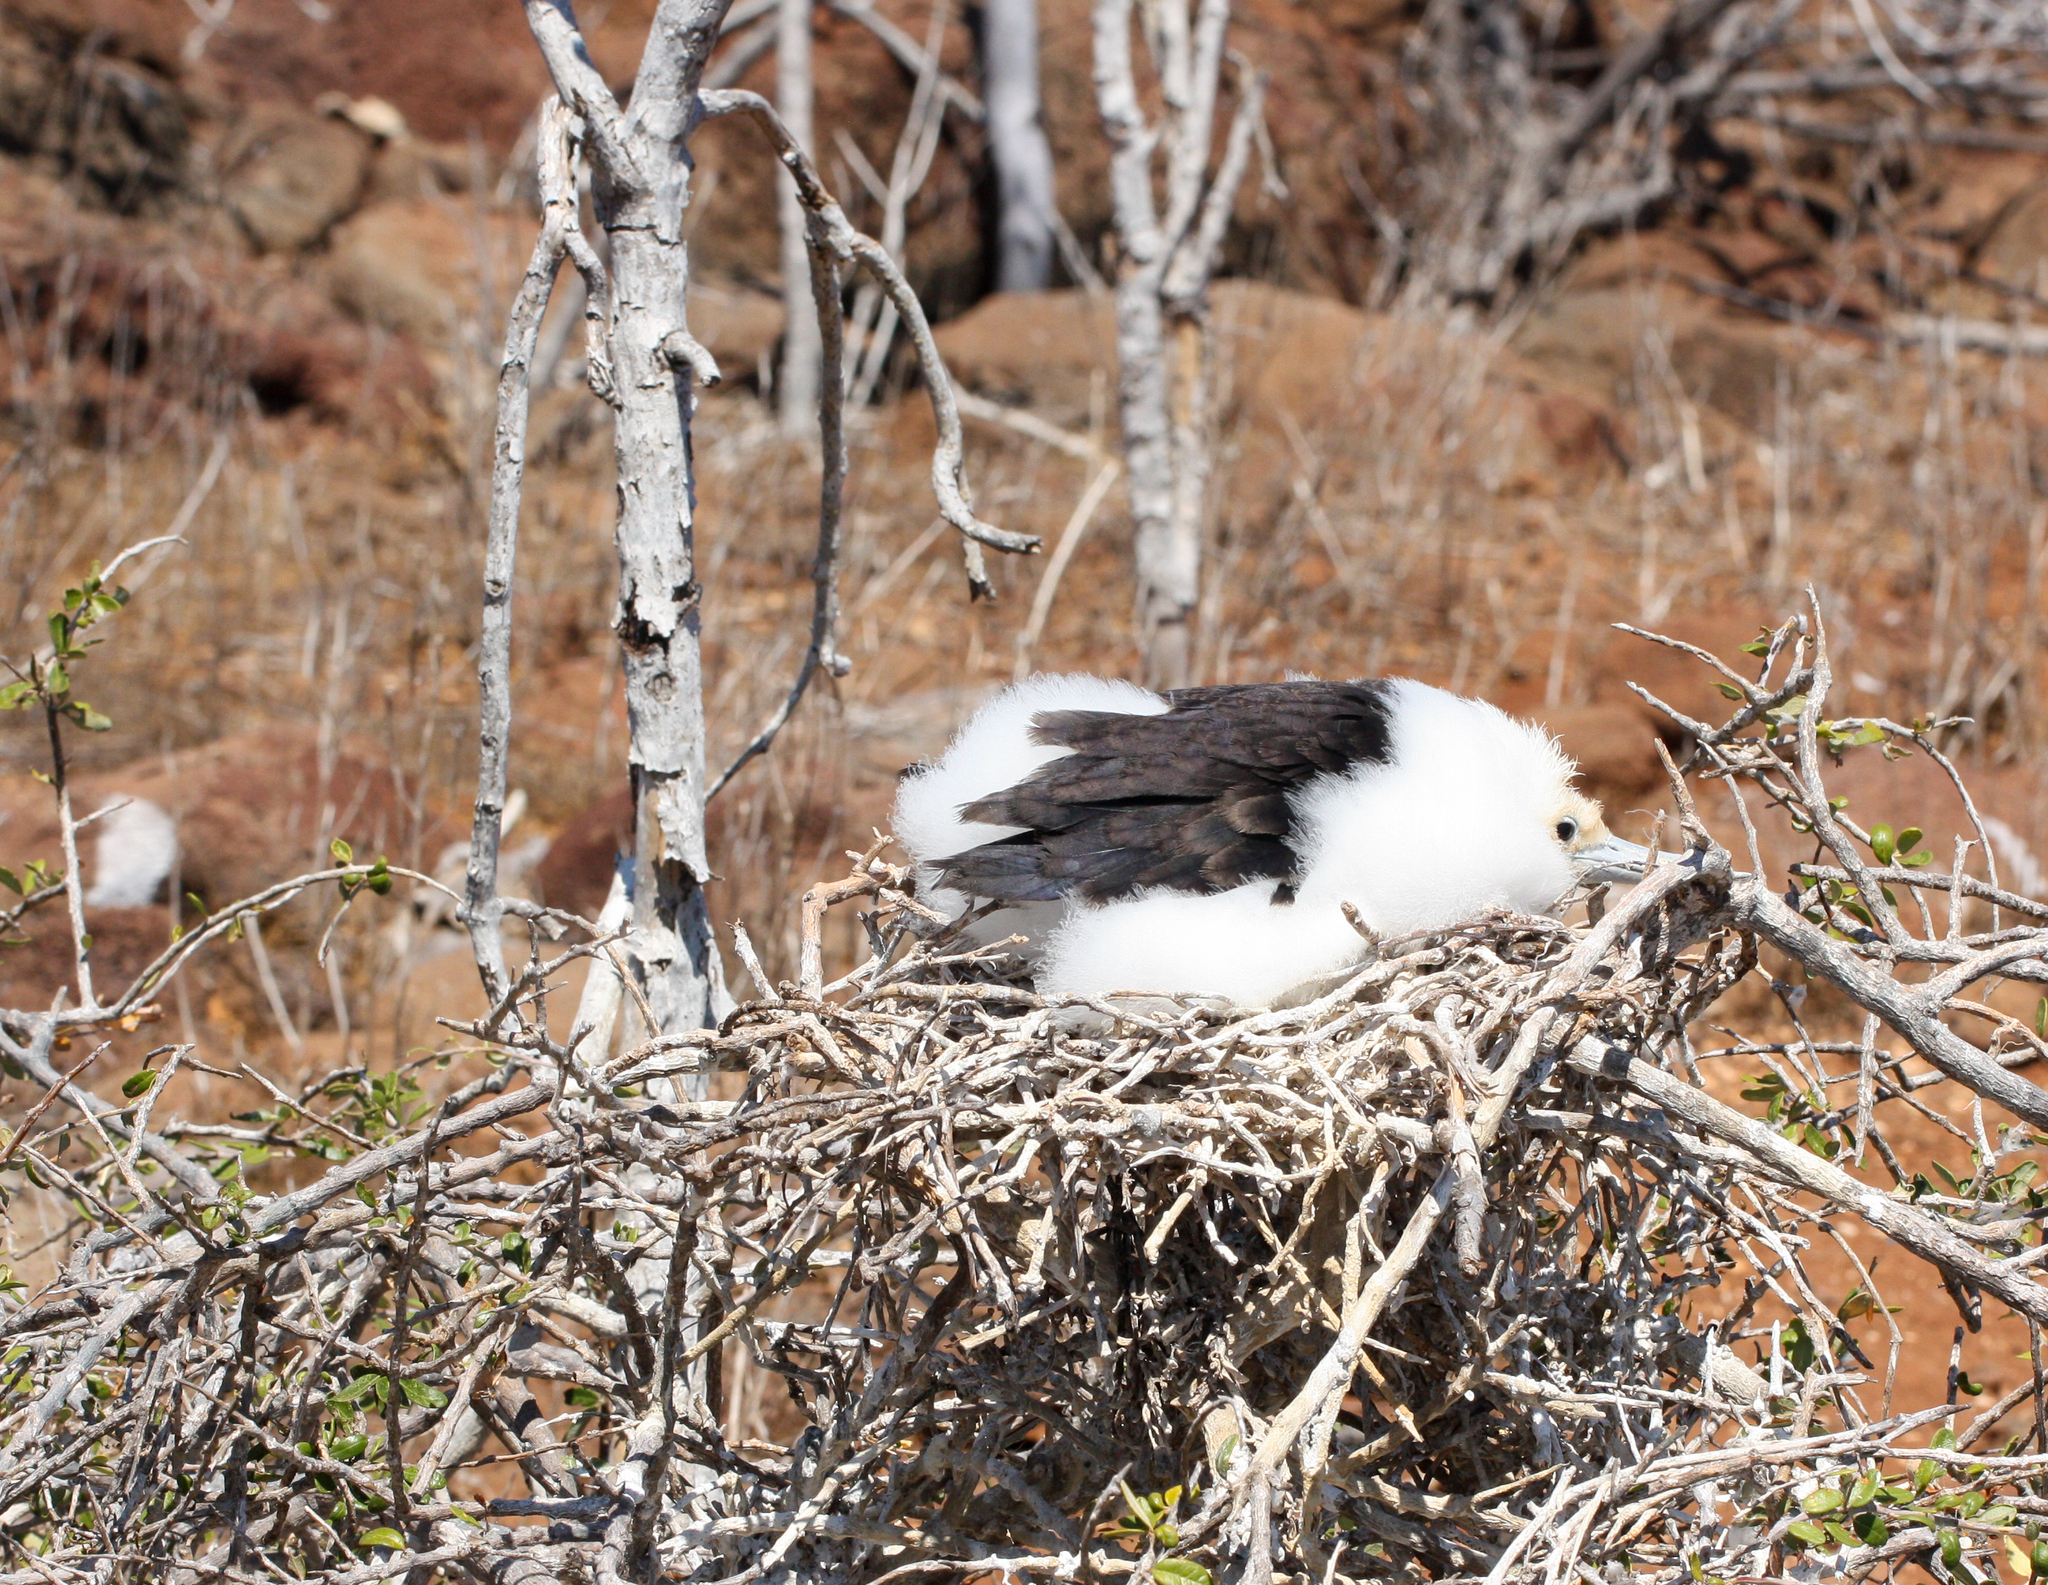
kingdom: Animalia
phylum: Chordata
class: Aves
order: Suliformes
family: Fregatidae
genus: Fregata
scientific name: Fregata minor
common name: Great frigatebird
